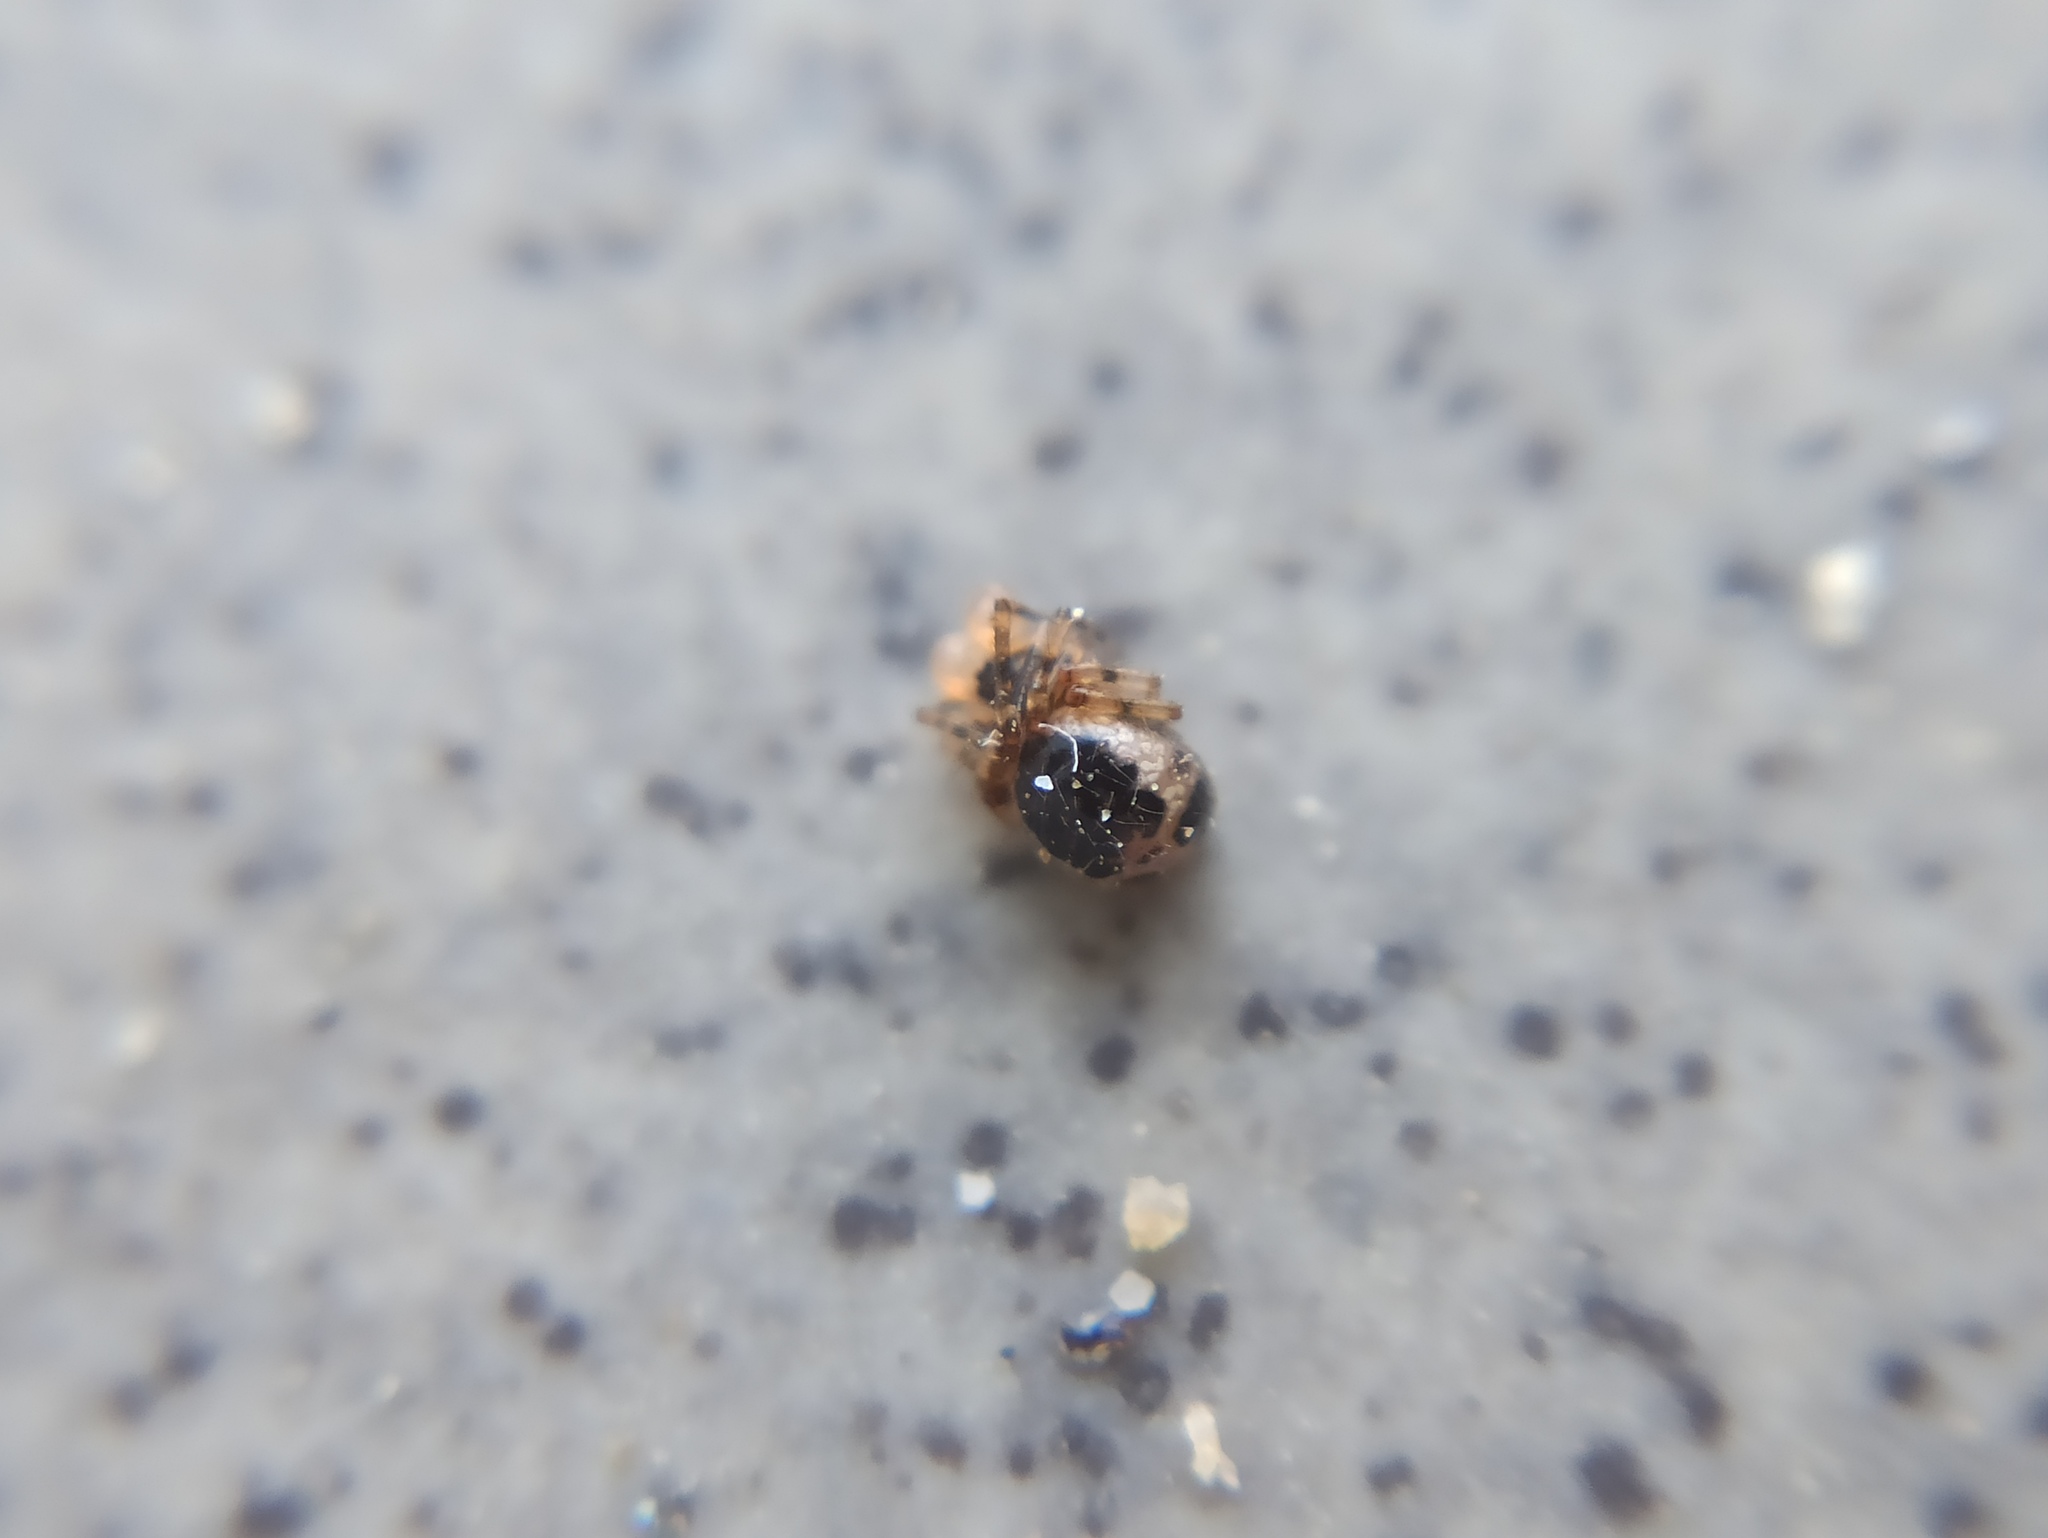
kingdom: Animalia
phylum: Arthropoda
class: Arachnida
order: Araneae
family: Theridiidae
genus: Sardinidion
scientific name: Sardinidion blackwalli
